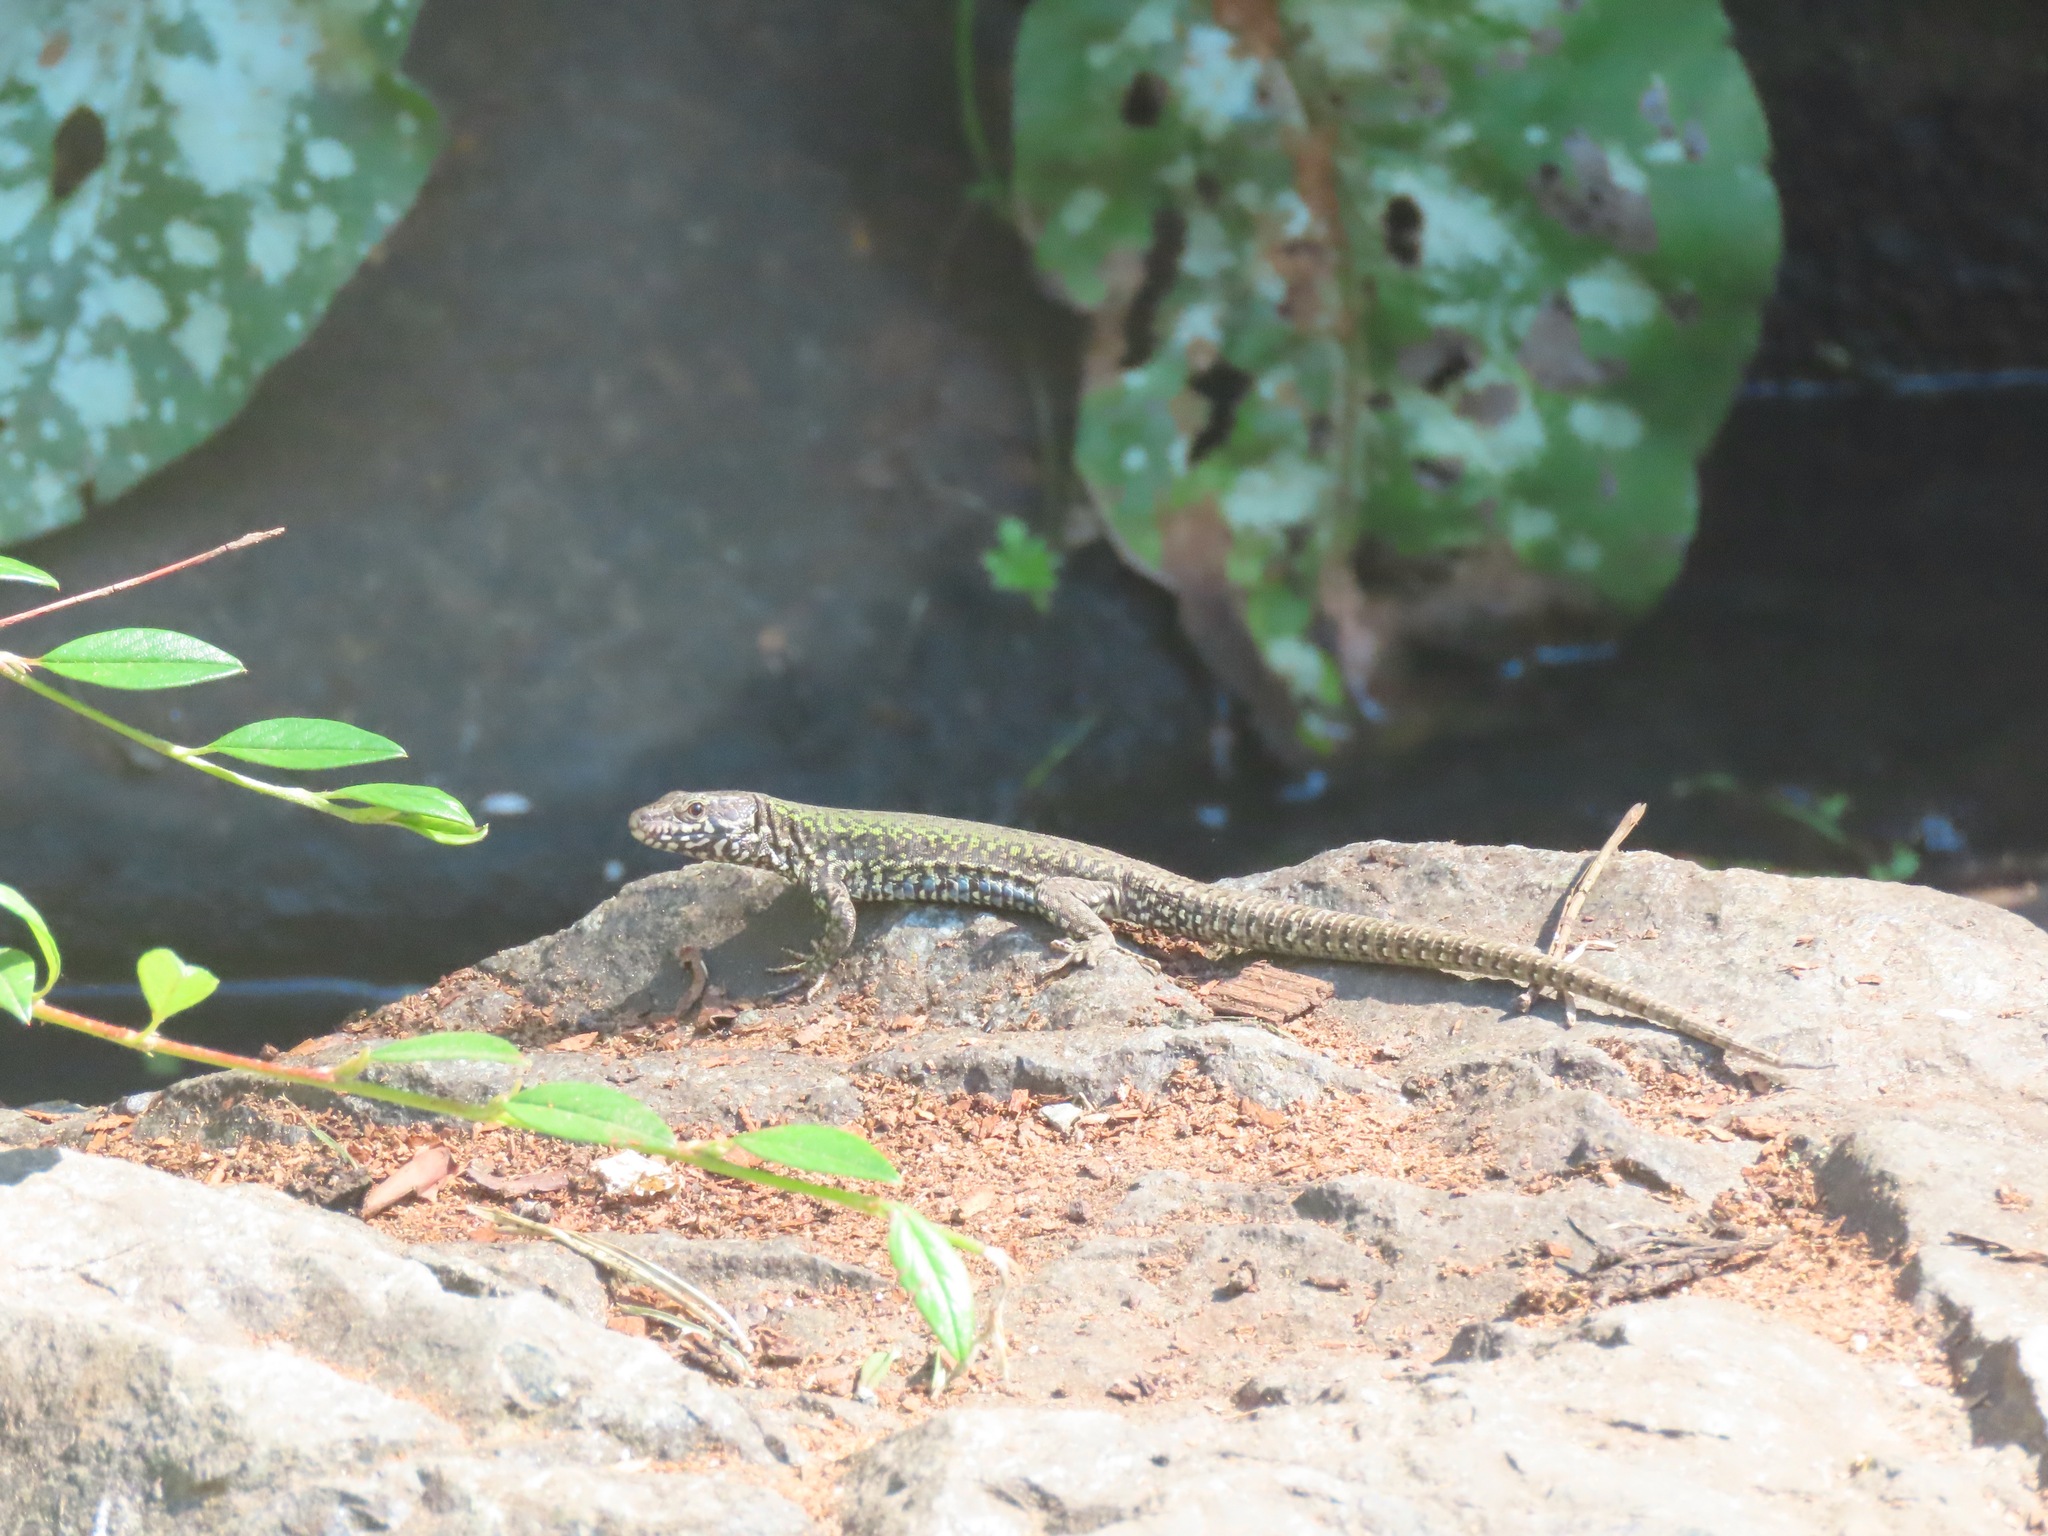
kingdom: Animalia
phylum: Chordata
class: Squamata
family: Lacertidae
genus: Podarcis
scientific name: Podarcis muralis
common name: Common wall lizard
